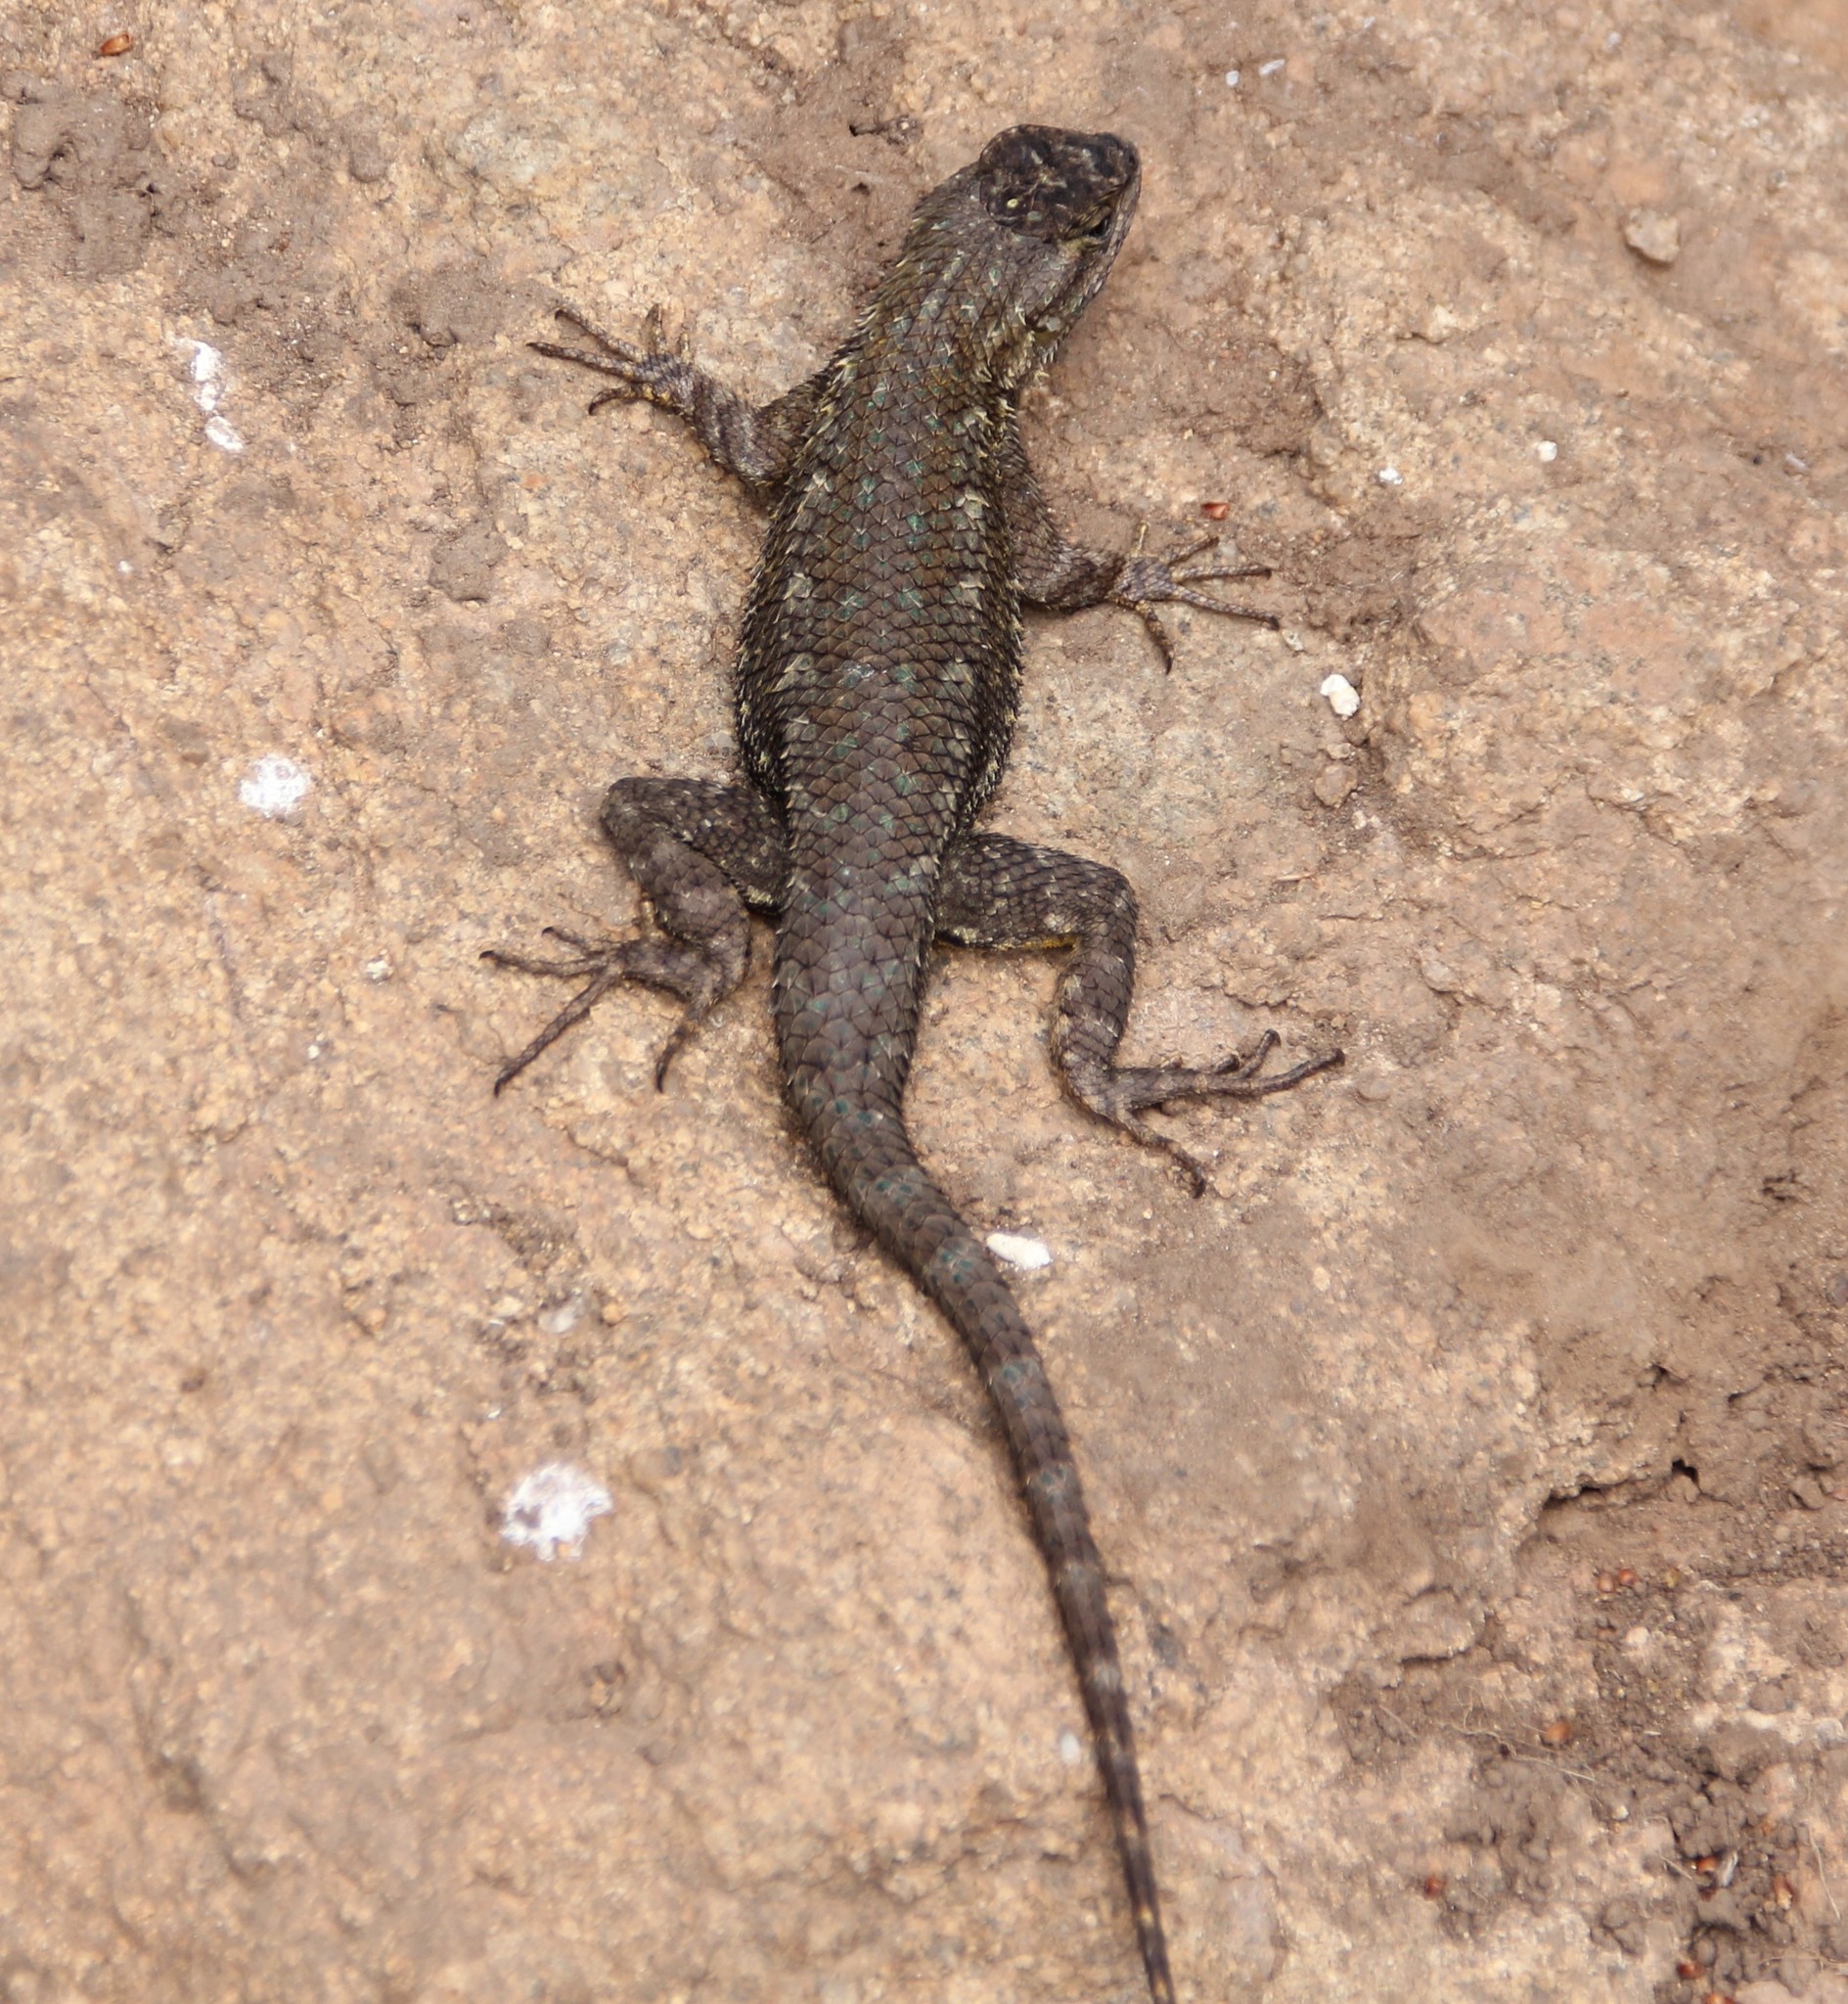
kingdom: Animalia
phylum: Chordata
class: Squamata
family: Phrynosomatidae
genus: Sceloporus
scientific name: Sceloporus occidentalis
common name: Western fence lizard
